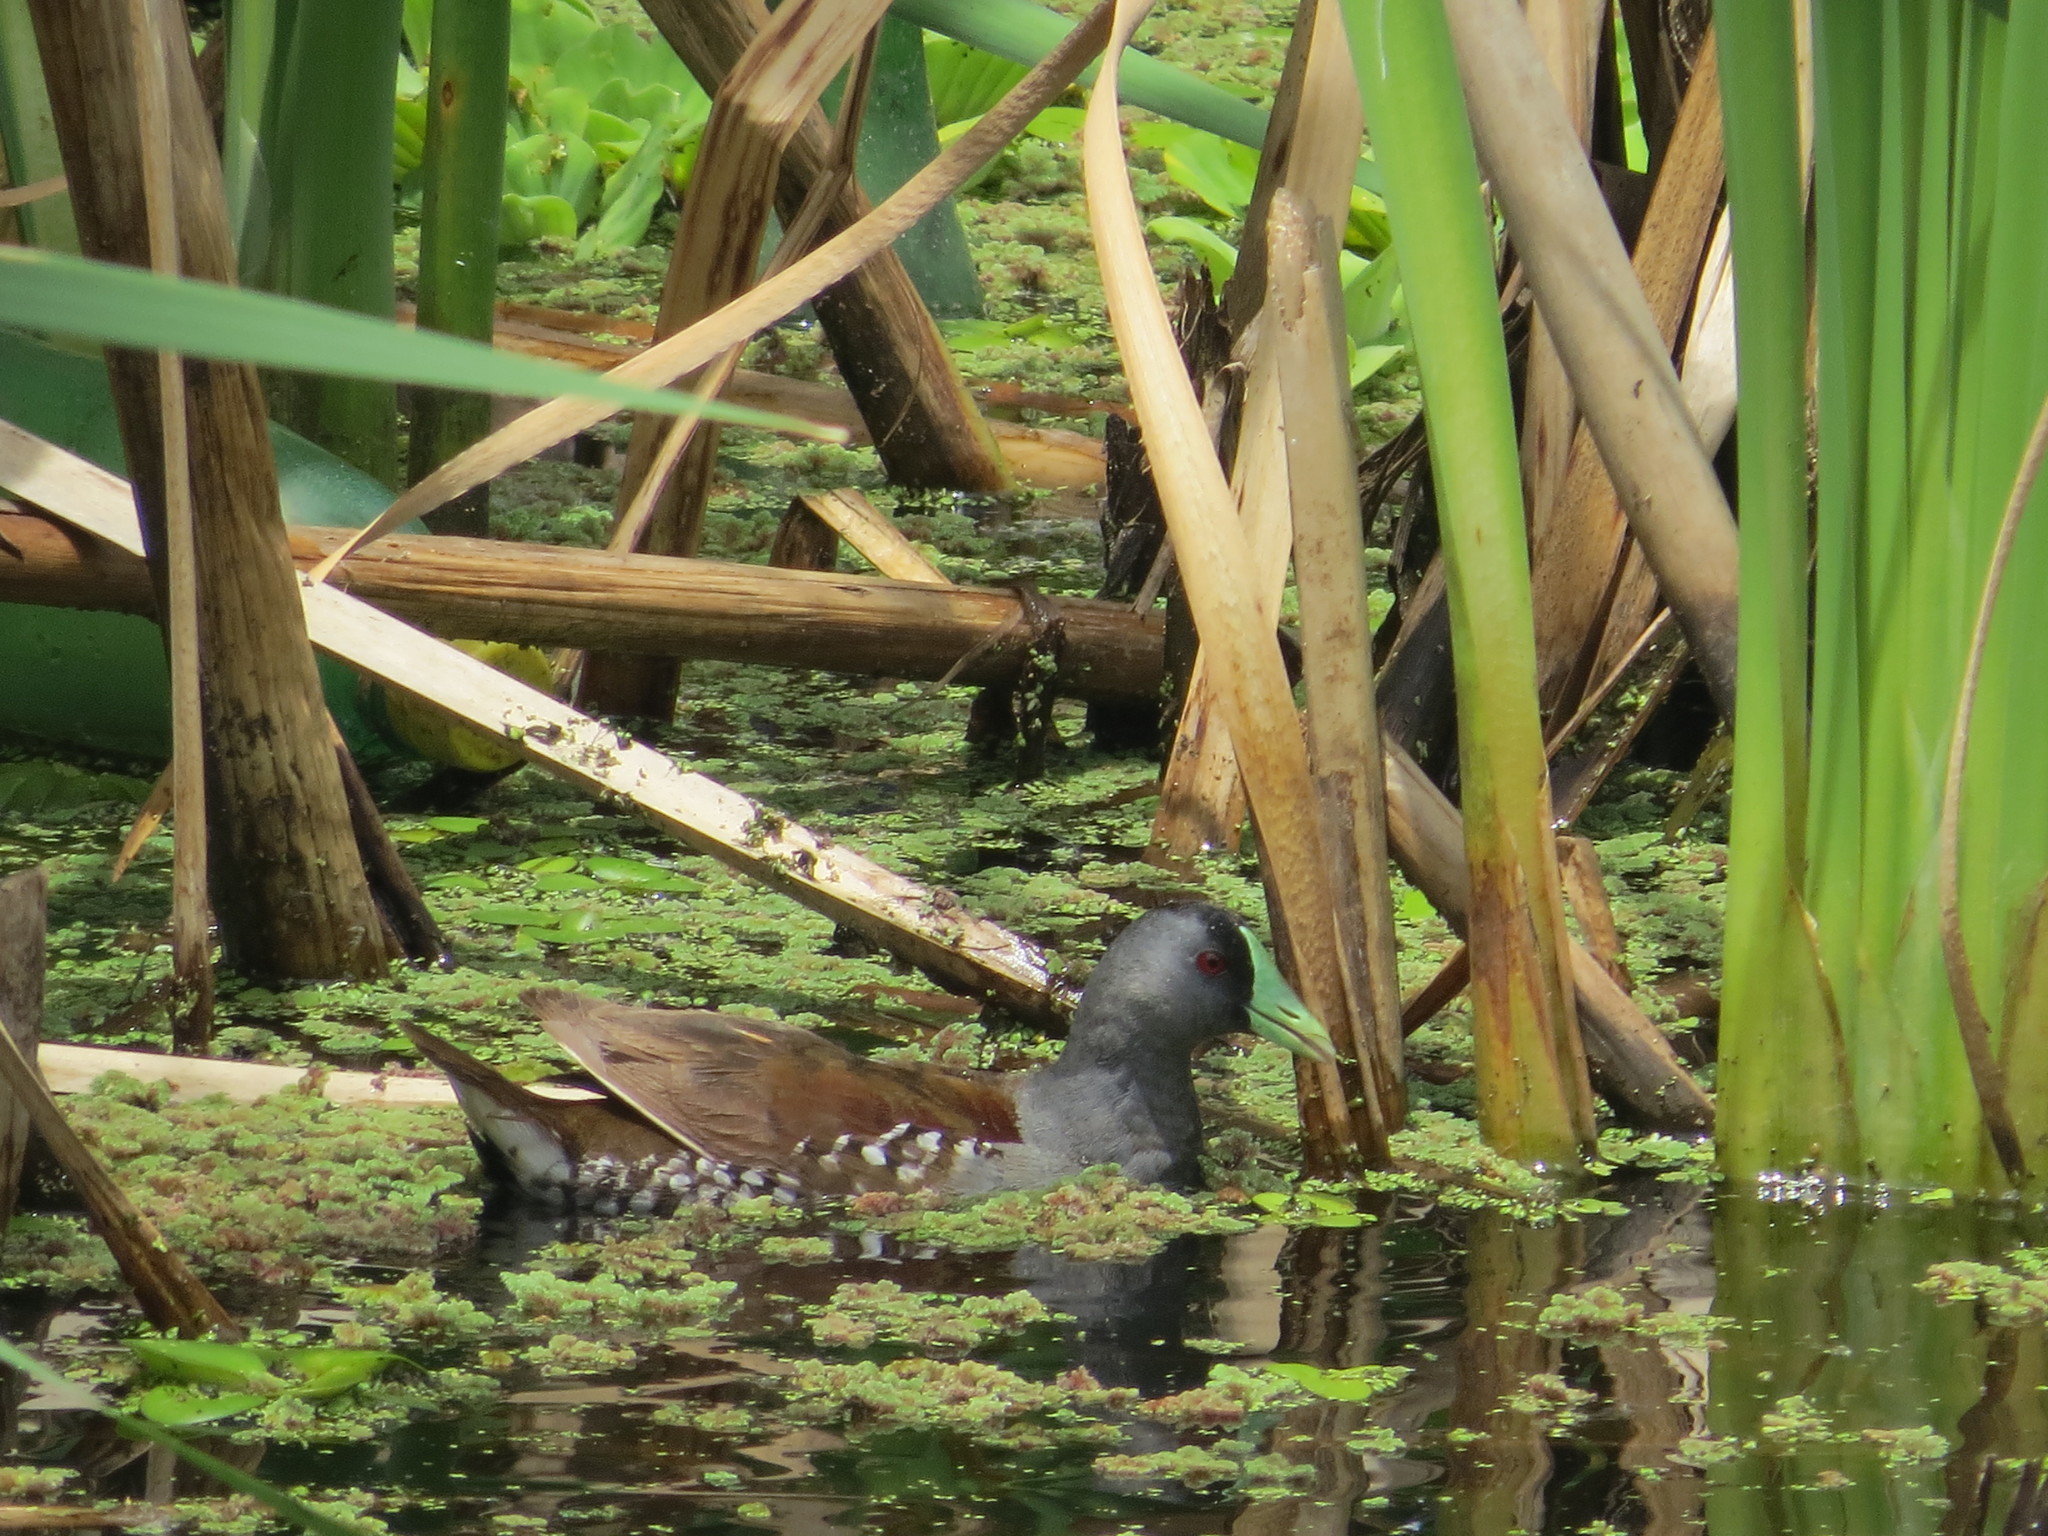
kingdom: Animalia
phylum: Chordata
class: Aves
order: Gruiformes
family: Rallidae
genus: Gallinula
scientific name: Gallinula melanops
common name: Spot-flanked gallinule
